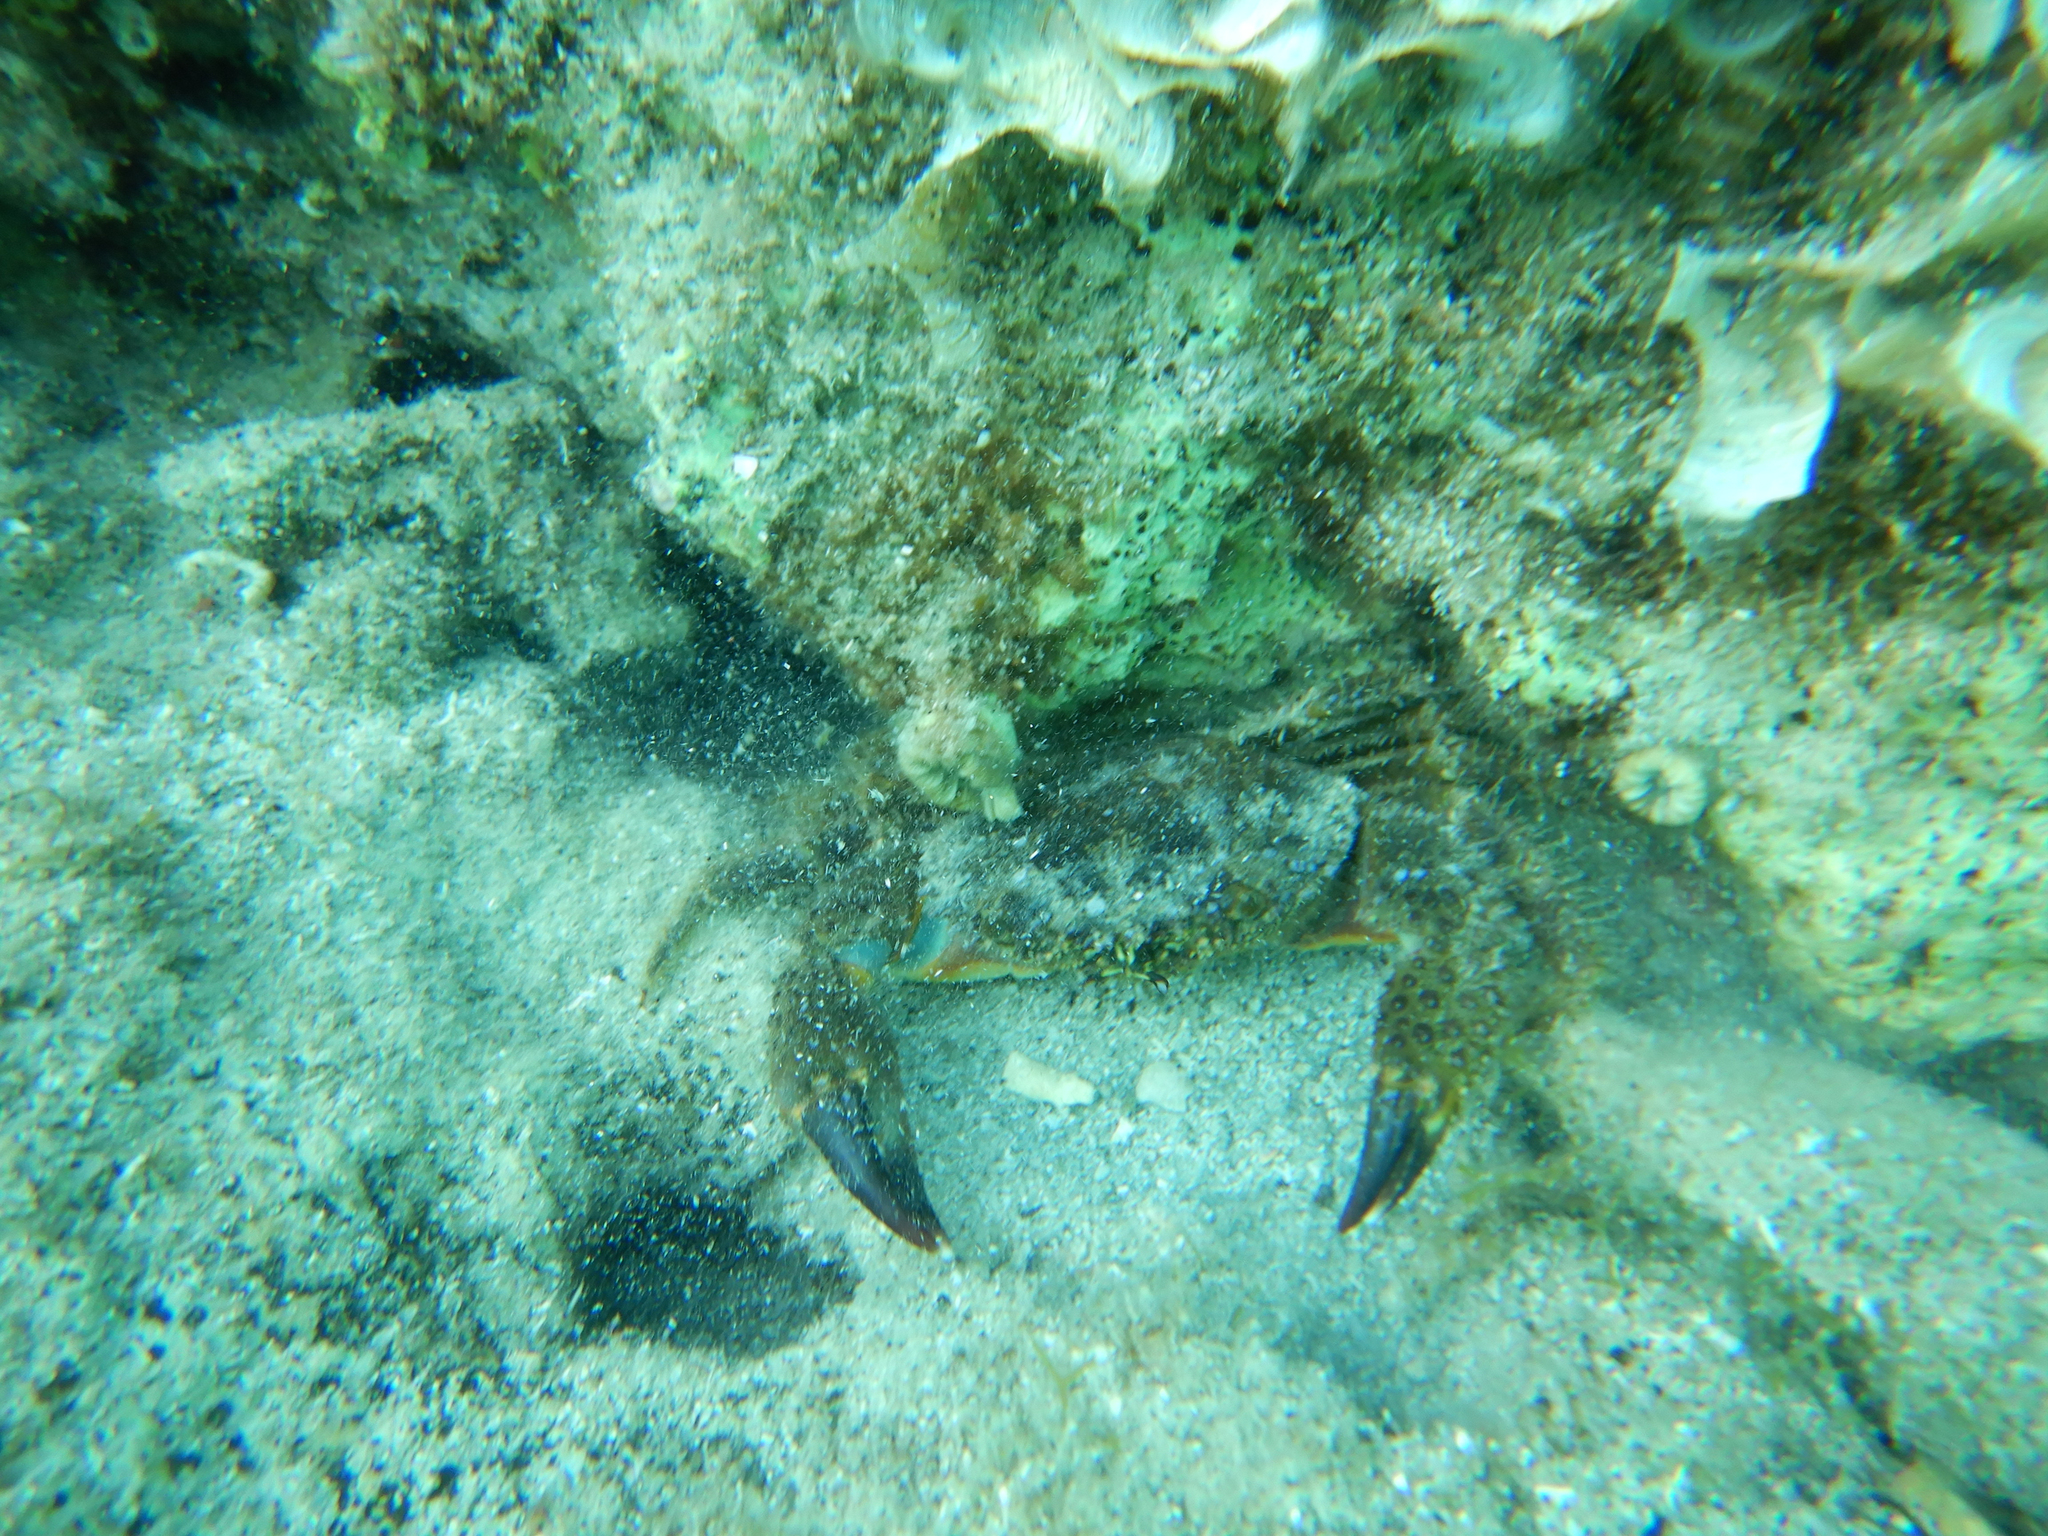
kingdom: Animalia
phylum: Arthropoda
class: Malacostraca
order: Decapoda
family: Eriphiidae
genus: Eriphia
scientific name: Eriphia verrucosa
